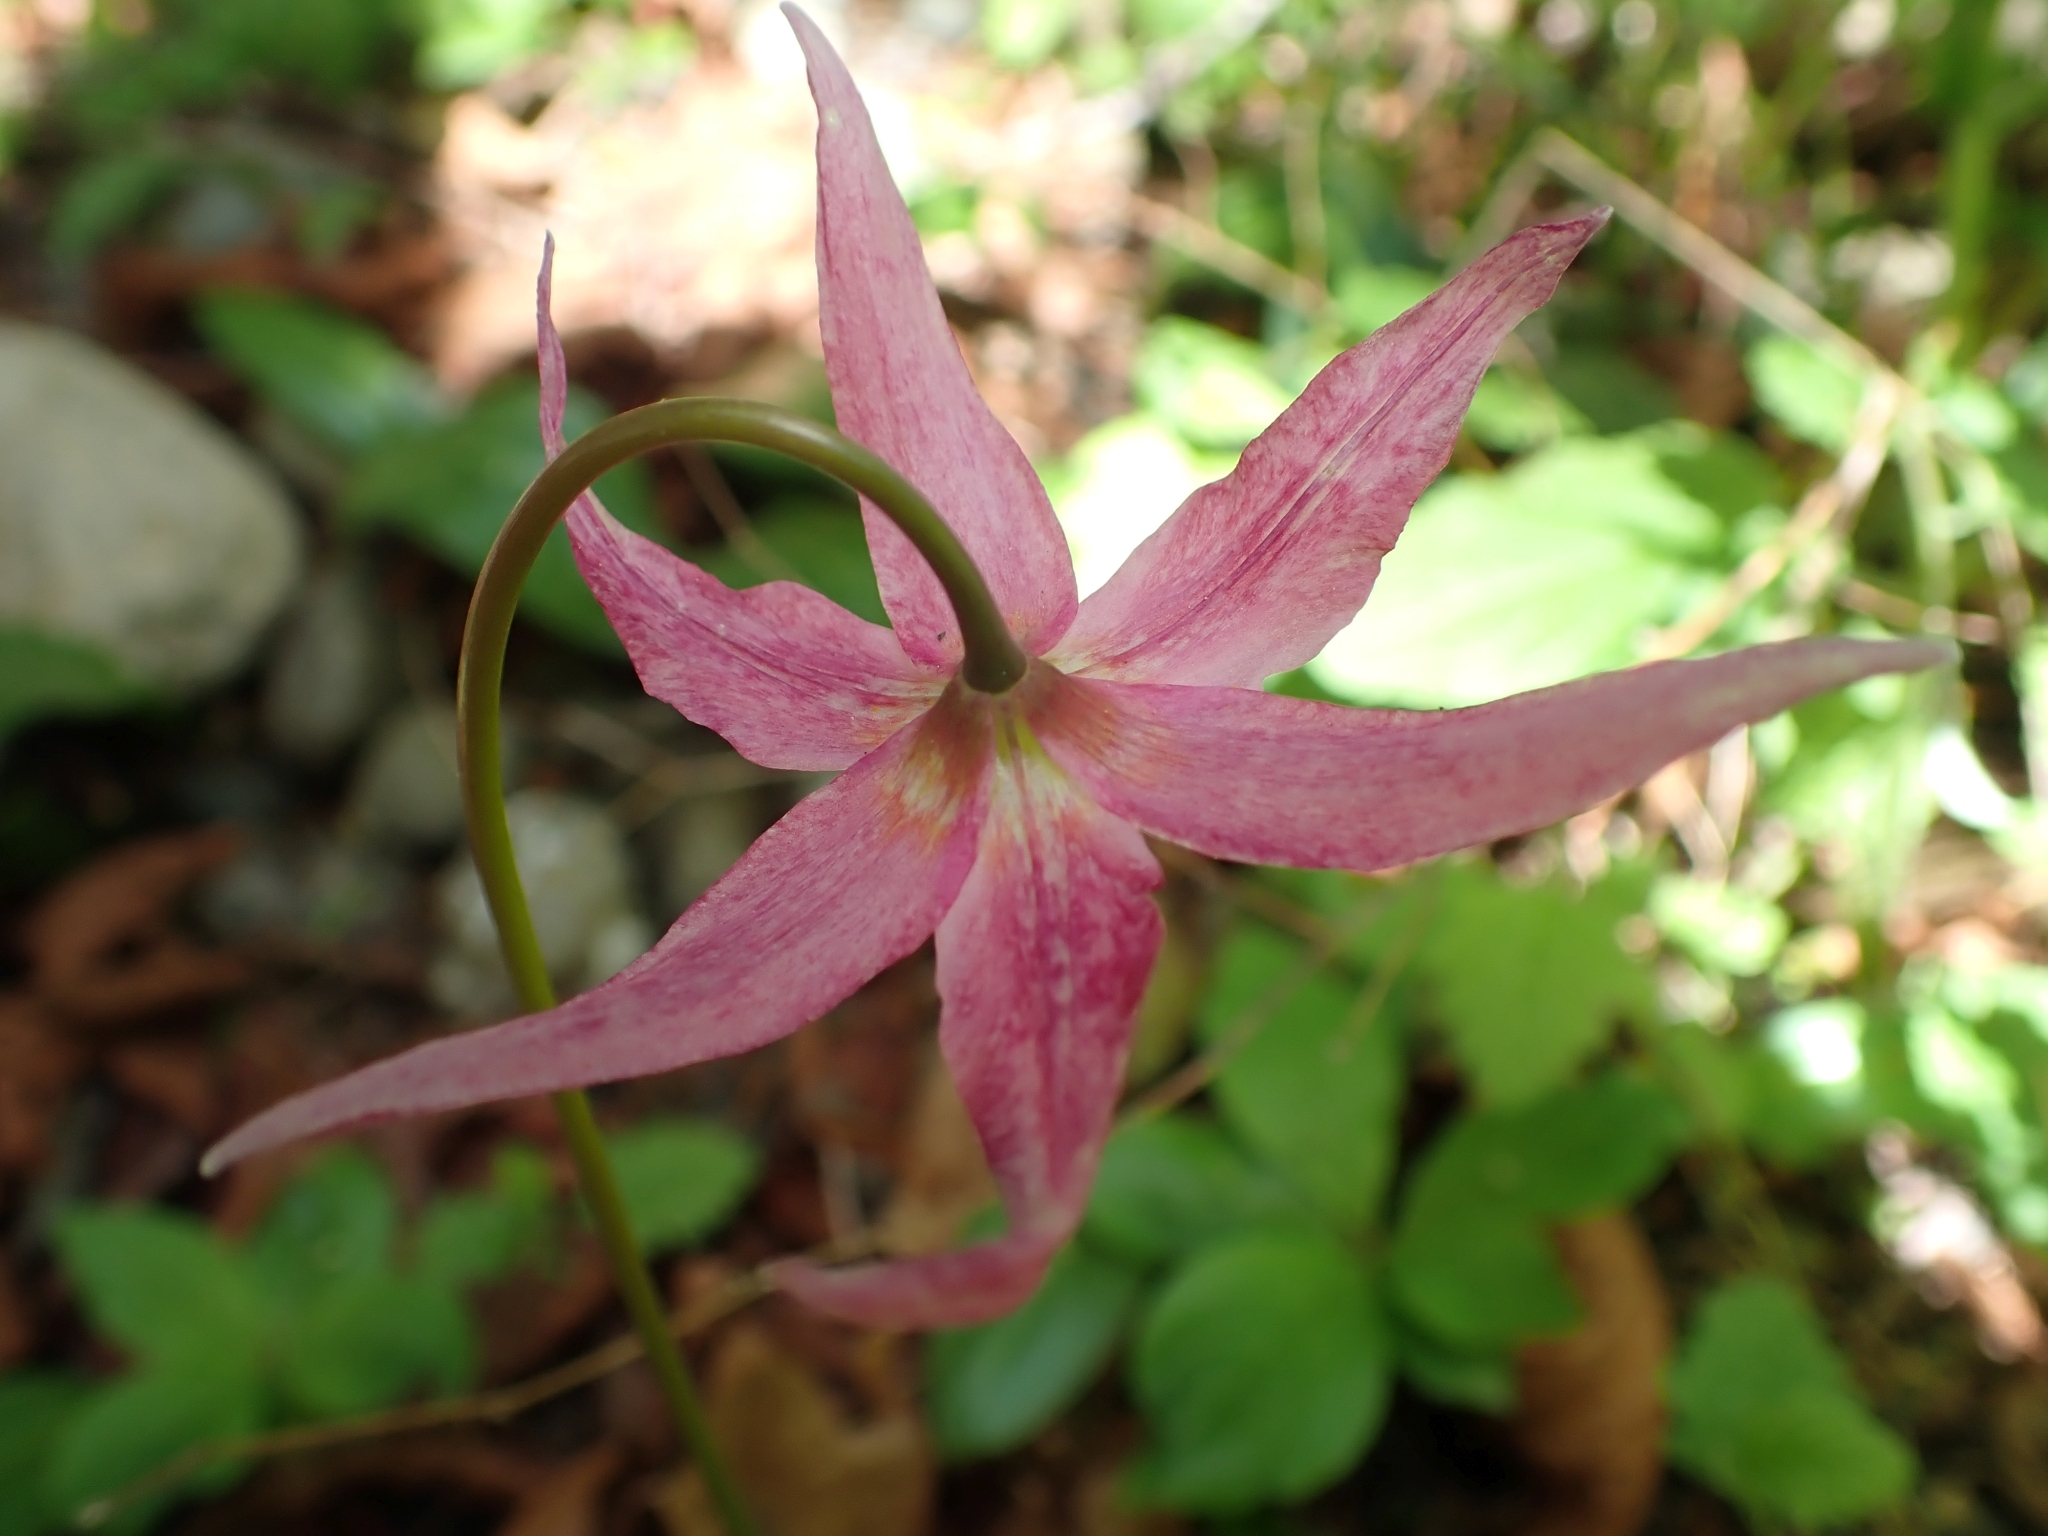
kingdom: Plantae
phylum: Tracheophyta
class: Liliopsida
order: Liliales
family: Liliaceae
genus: Erythronium
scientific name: Erythronium revolutum
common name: Pink fawn-lily
